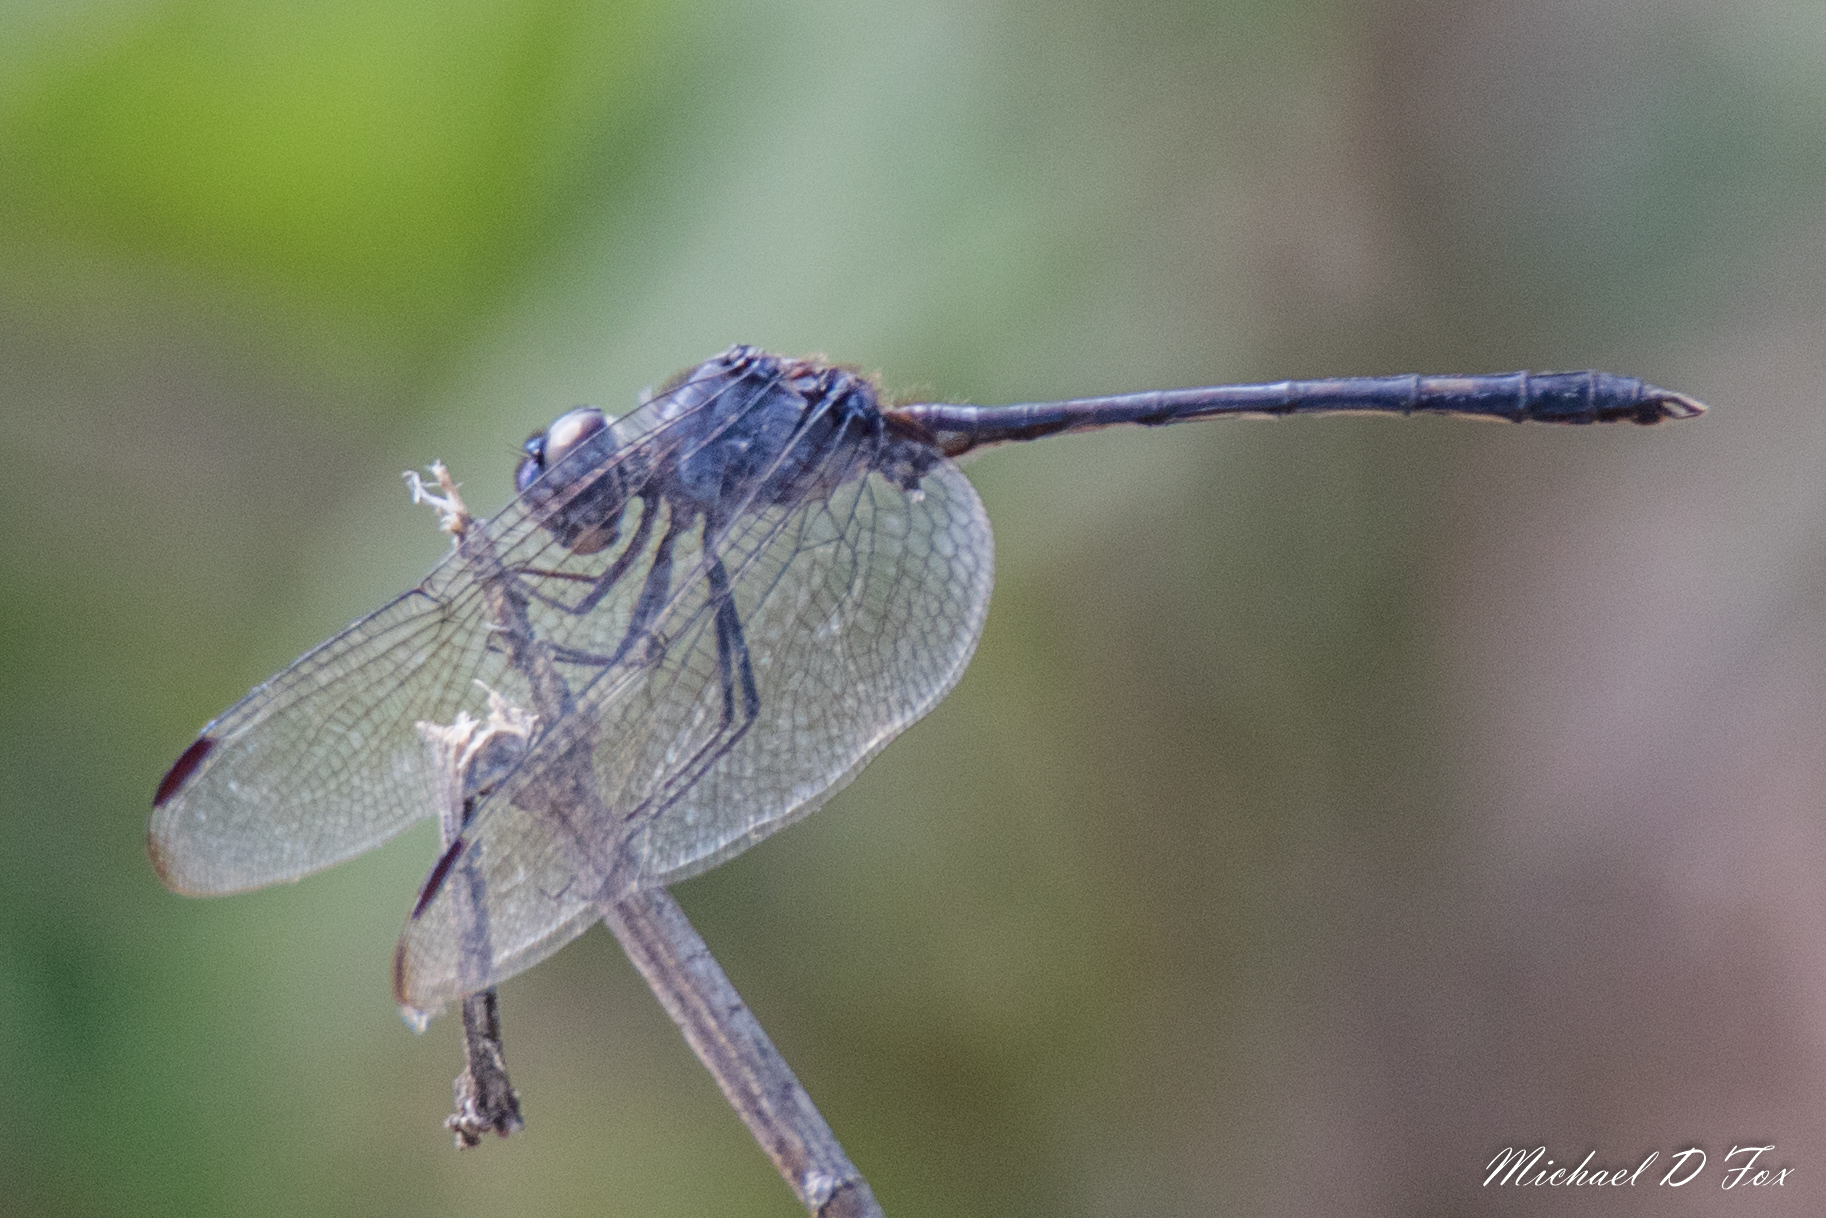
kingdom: Animalia
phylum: Arthropoda
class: Insecta
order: Odonata
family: Libellulidae
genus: Dythemis
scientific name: Dythemis nigrescens
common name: Black setwing
